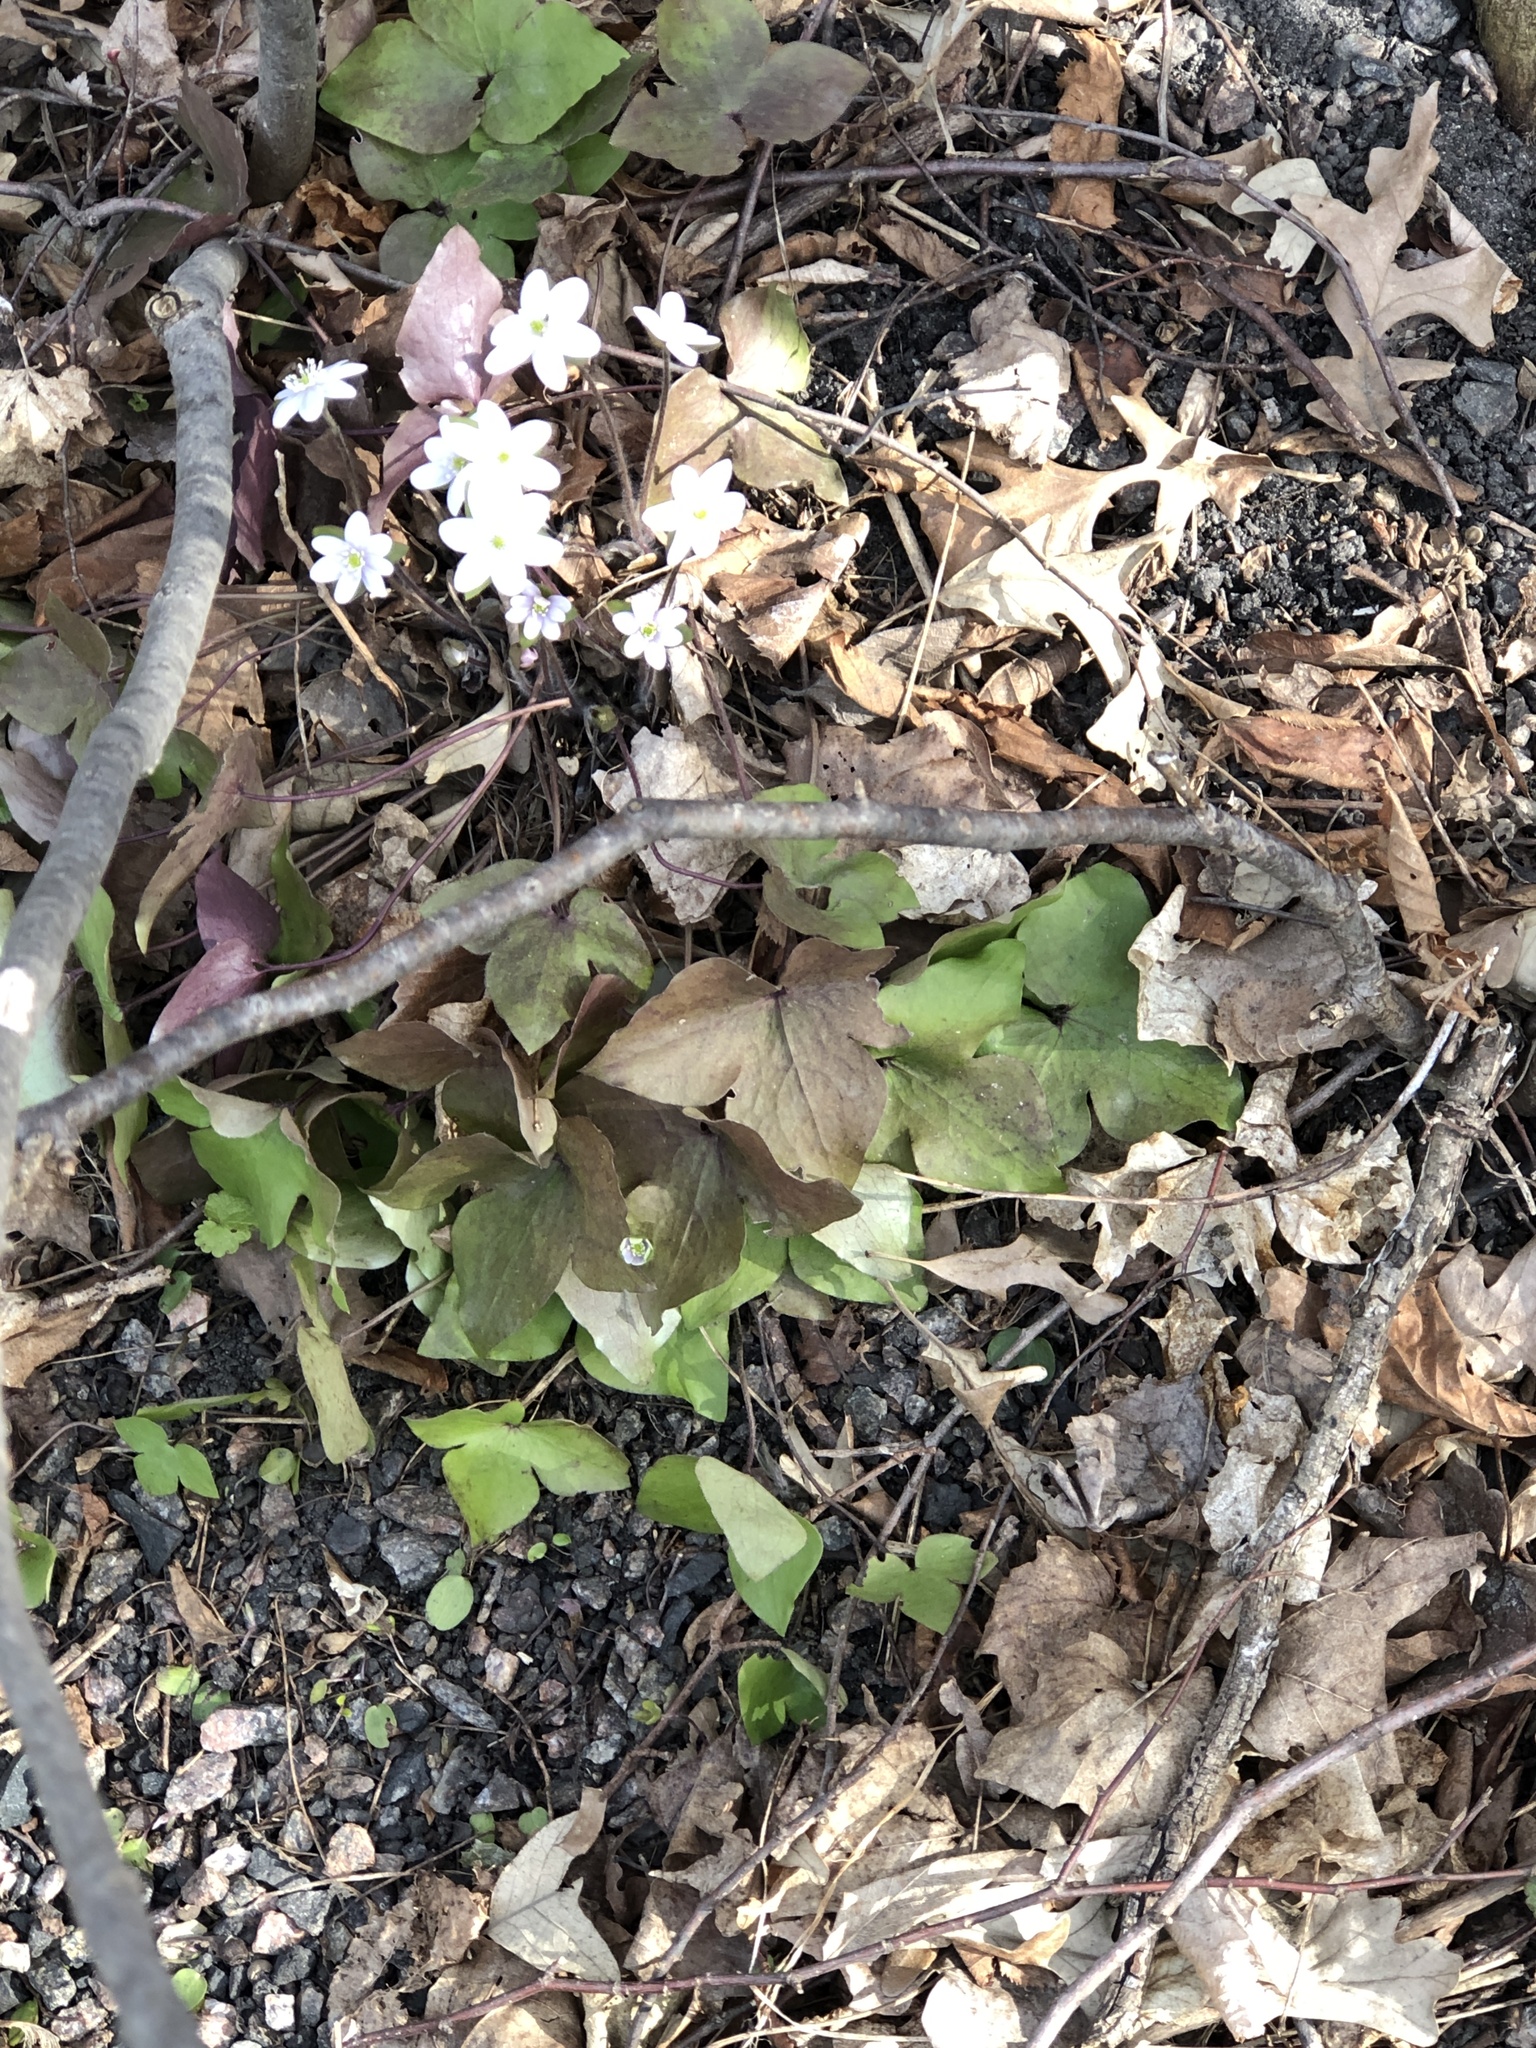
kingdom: Plantae
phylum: Tracheophyta
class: Magnoliopsida
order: Ranunculales
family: Ranunculaceae
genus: Hepatica
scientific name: Hepatica acutiloba
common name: Sharp-lobed hepatica
